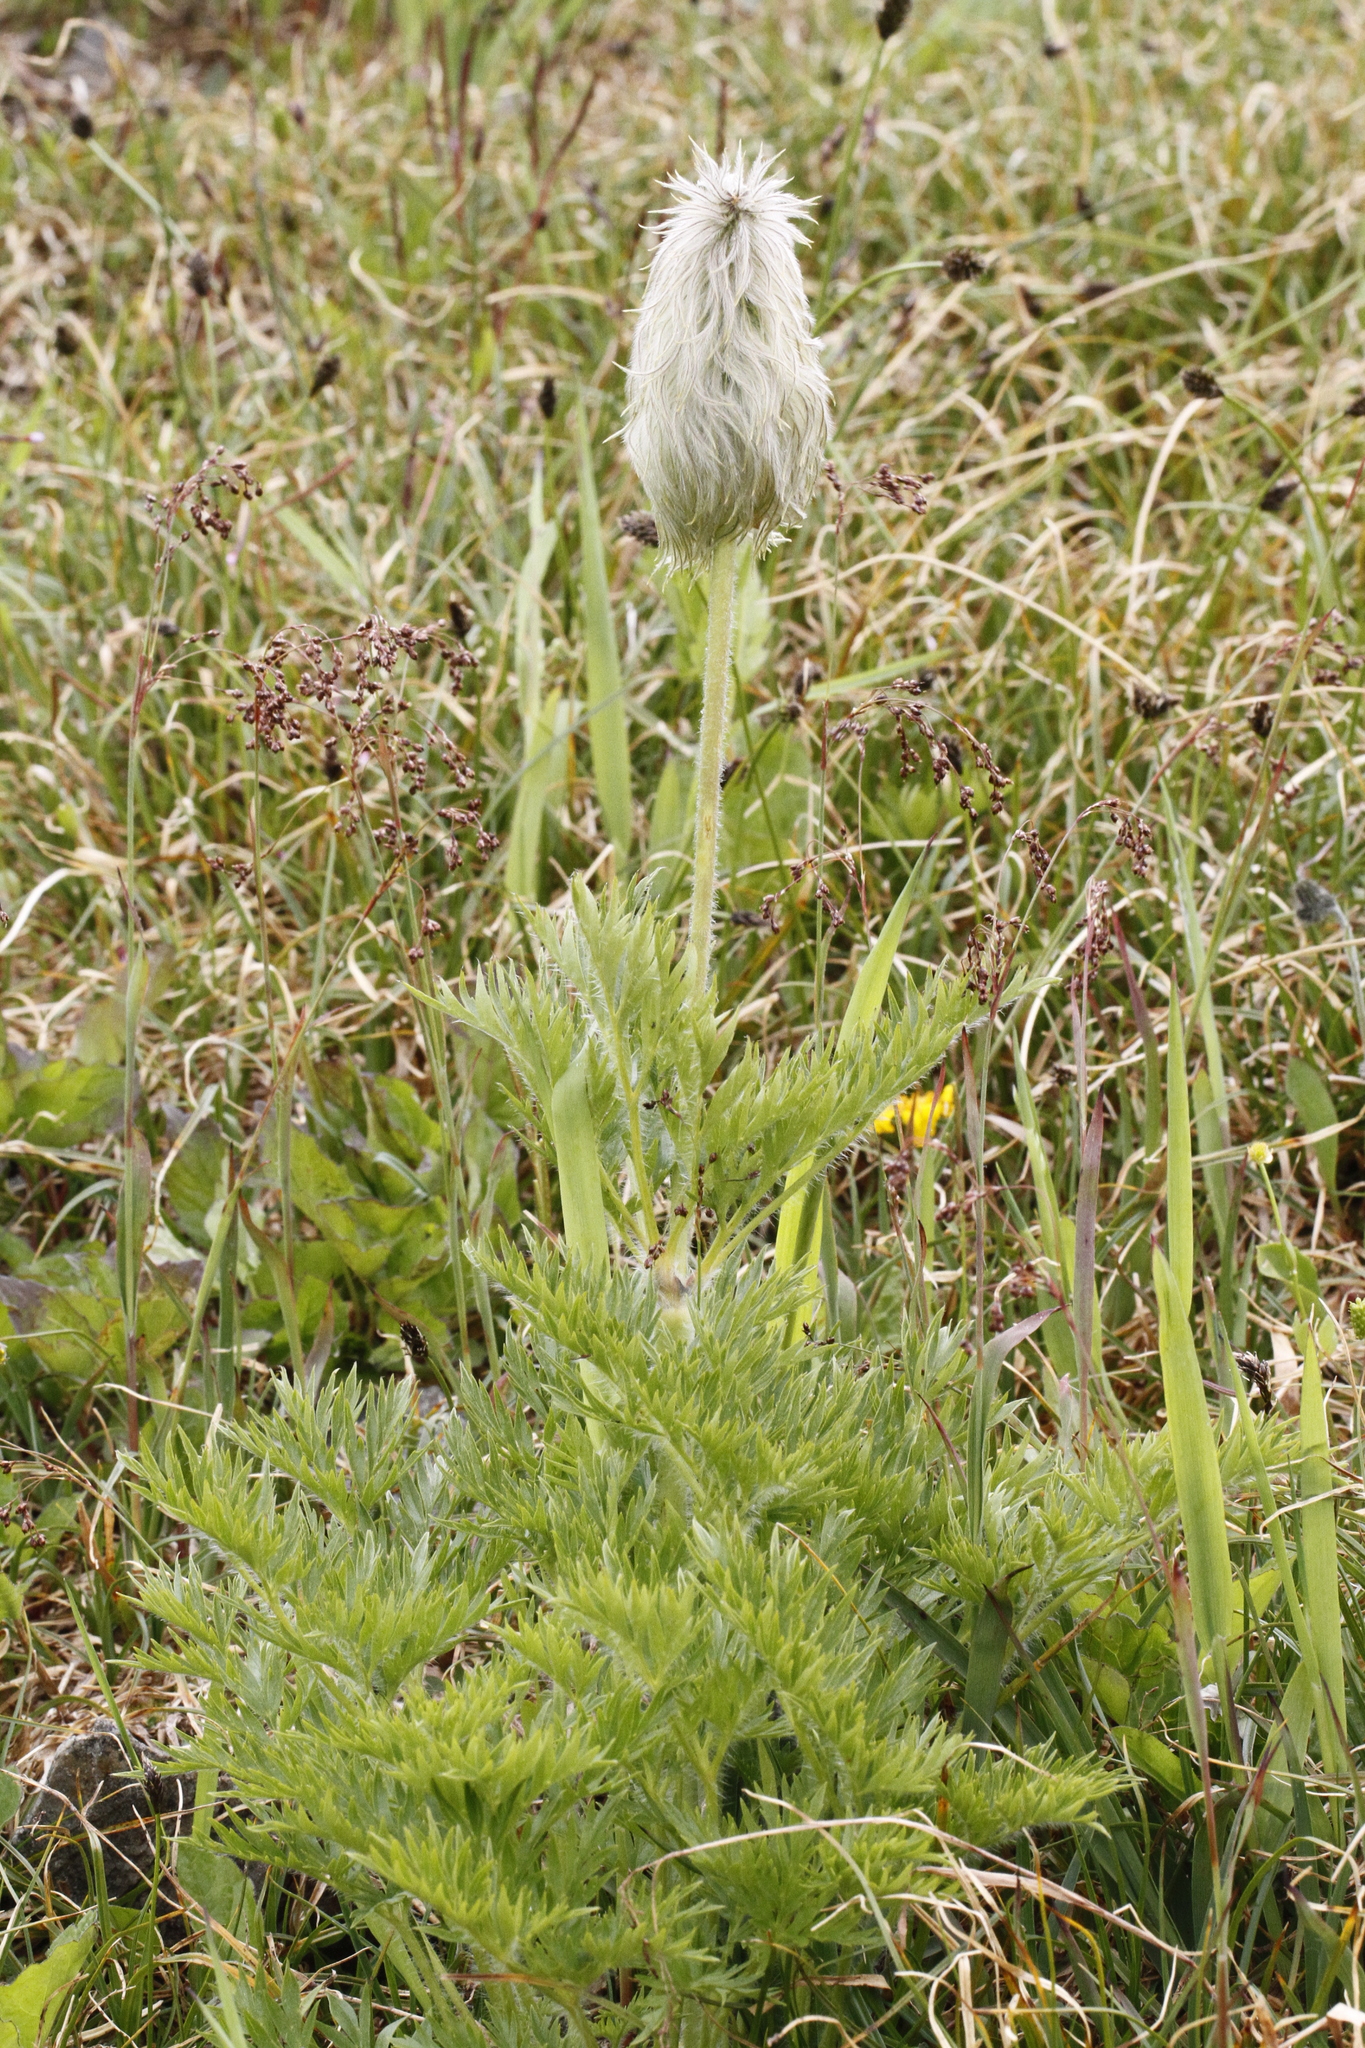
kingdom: Plantae
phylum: Tracheophyta
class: Magnoliopsida
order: Ranunculales
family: Ranunculaceae
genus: Pulsatilla
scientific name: Pulsatilla occidentalis
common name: Mountain pasqueflower
